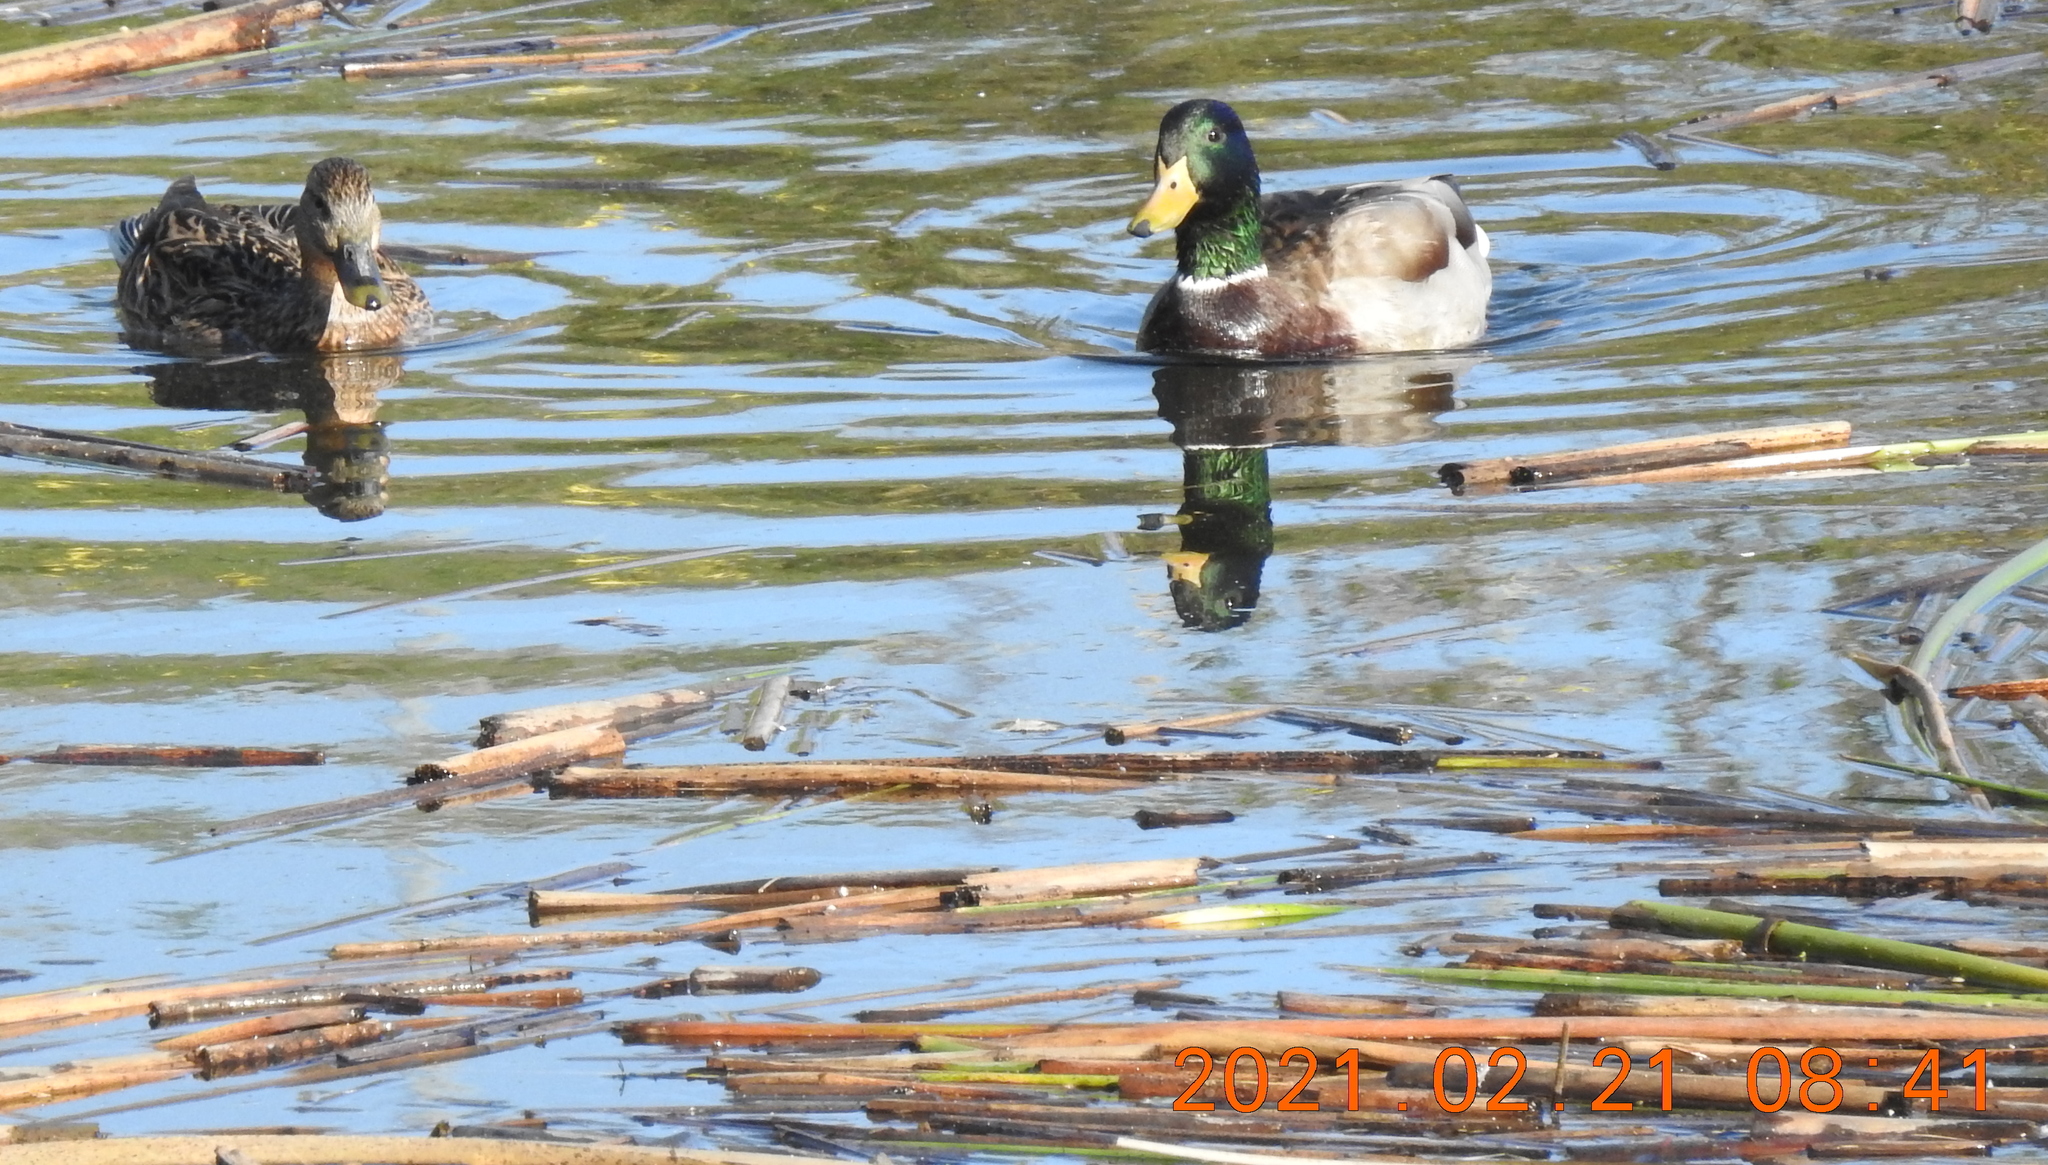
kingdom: Animalia
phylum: Chordata
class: Aves
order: Anseriformes
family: Anatidae
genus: Anas
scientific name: Anas platyrhynchos
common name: Mallard
